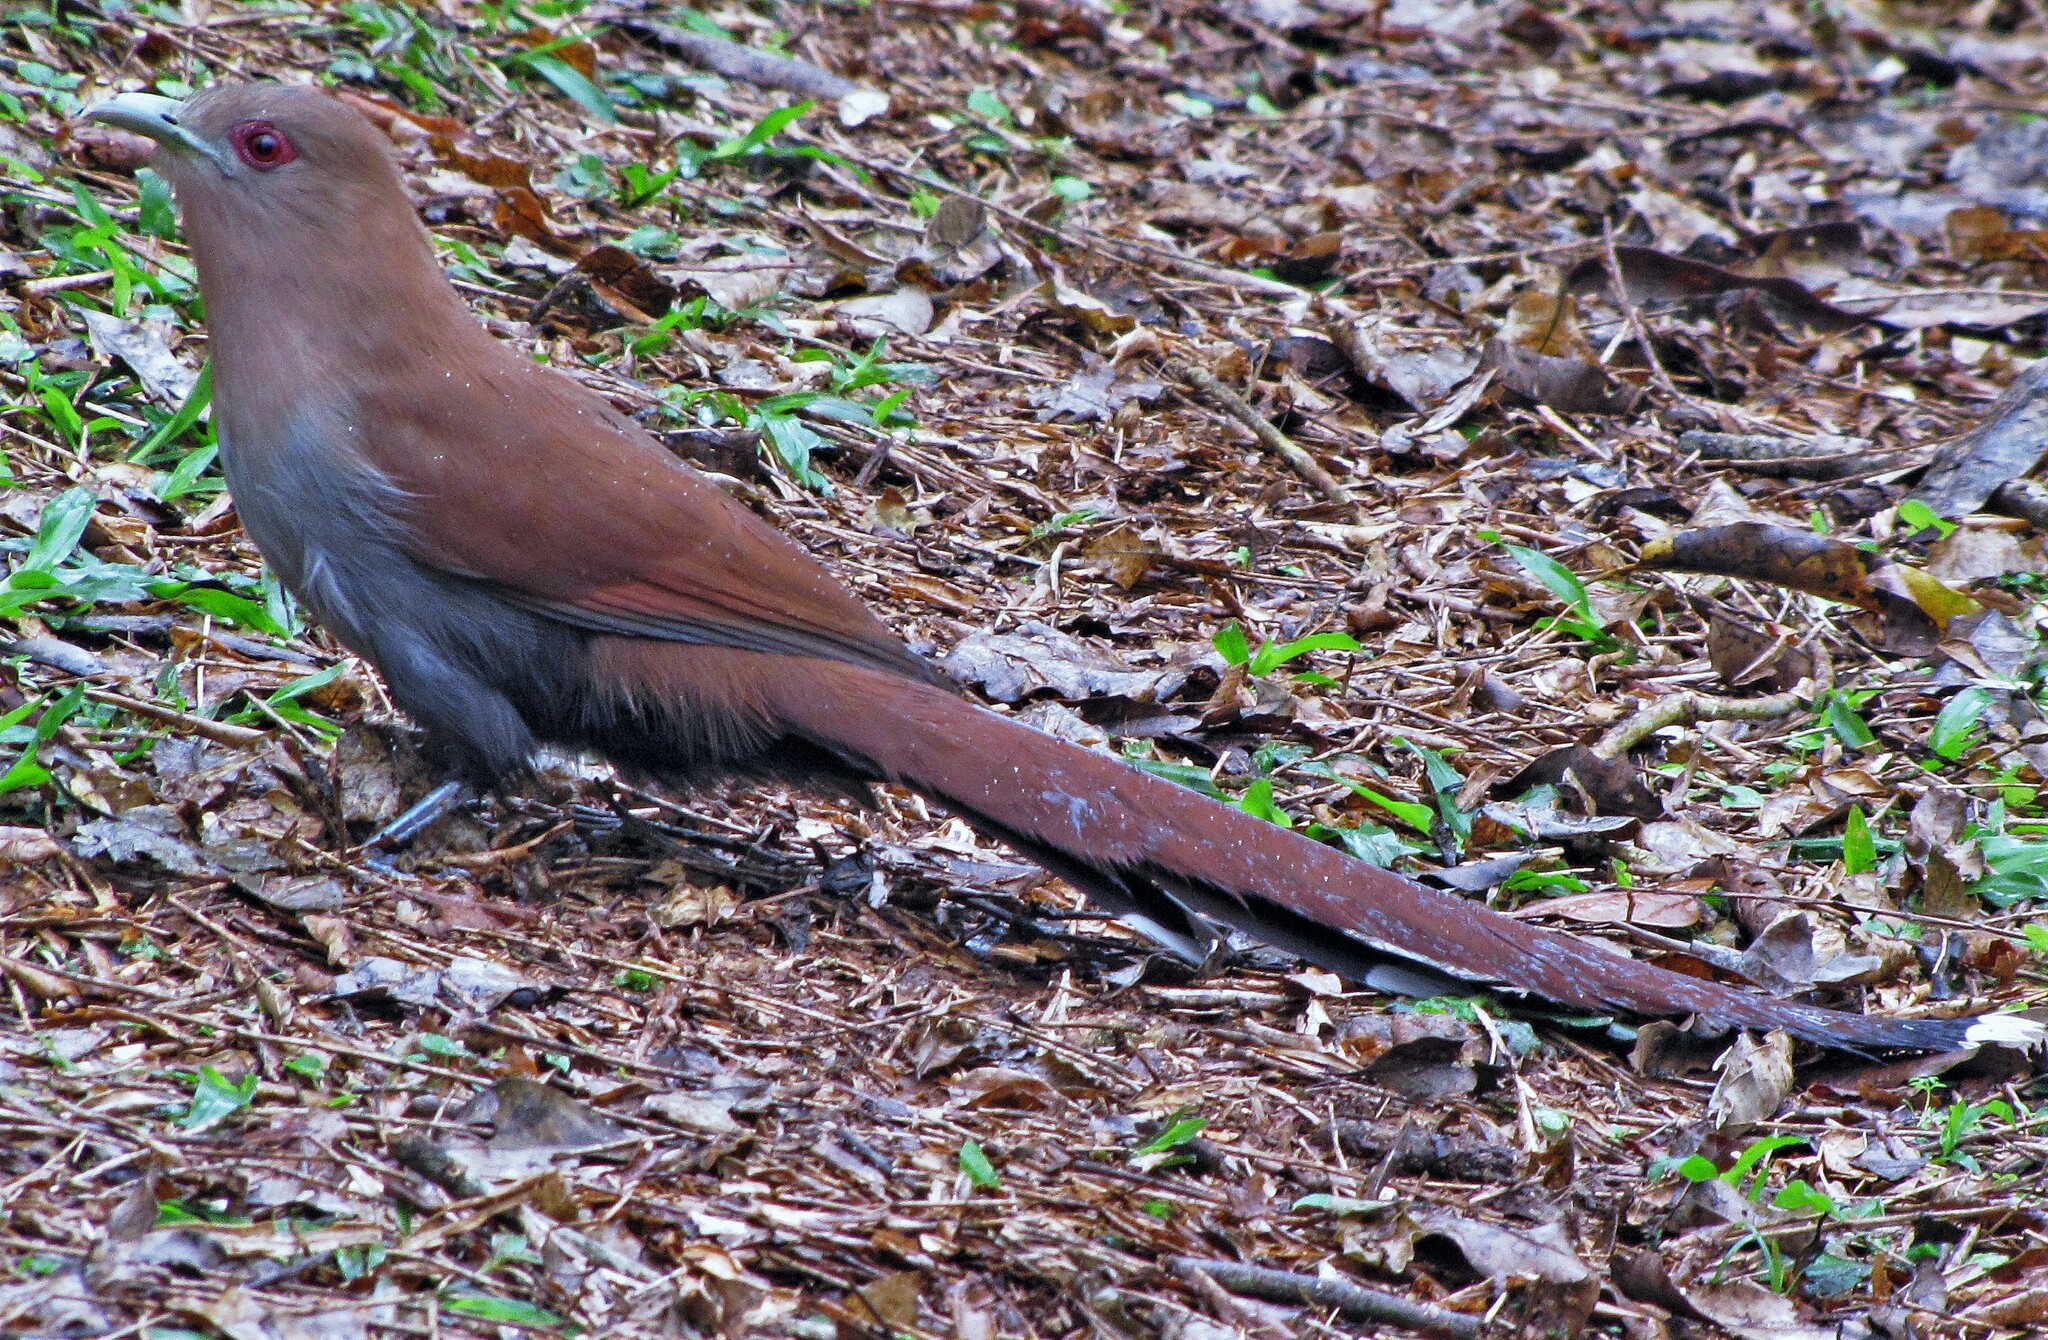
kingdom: Animalia
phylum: Chordata
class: Aves
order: Cuculiformes
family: Cuculidae
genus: Piaya
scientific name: Piaya cayana
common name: Squirrel cuckoo
